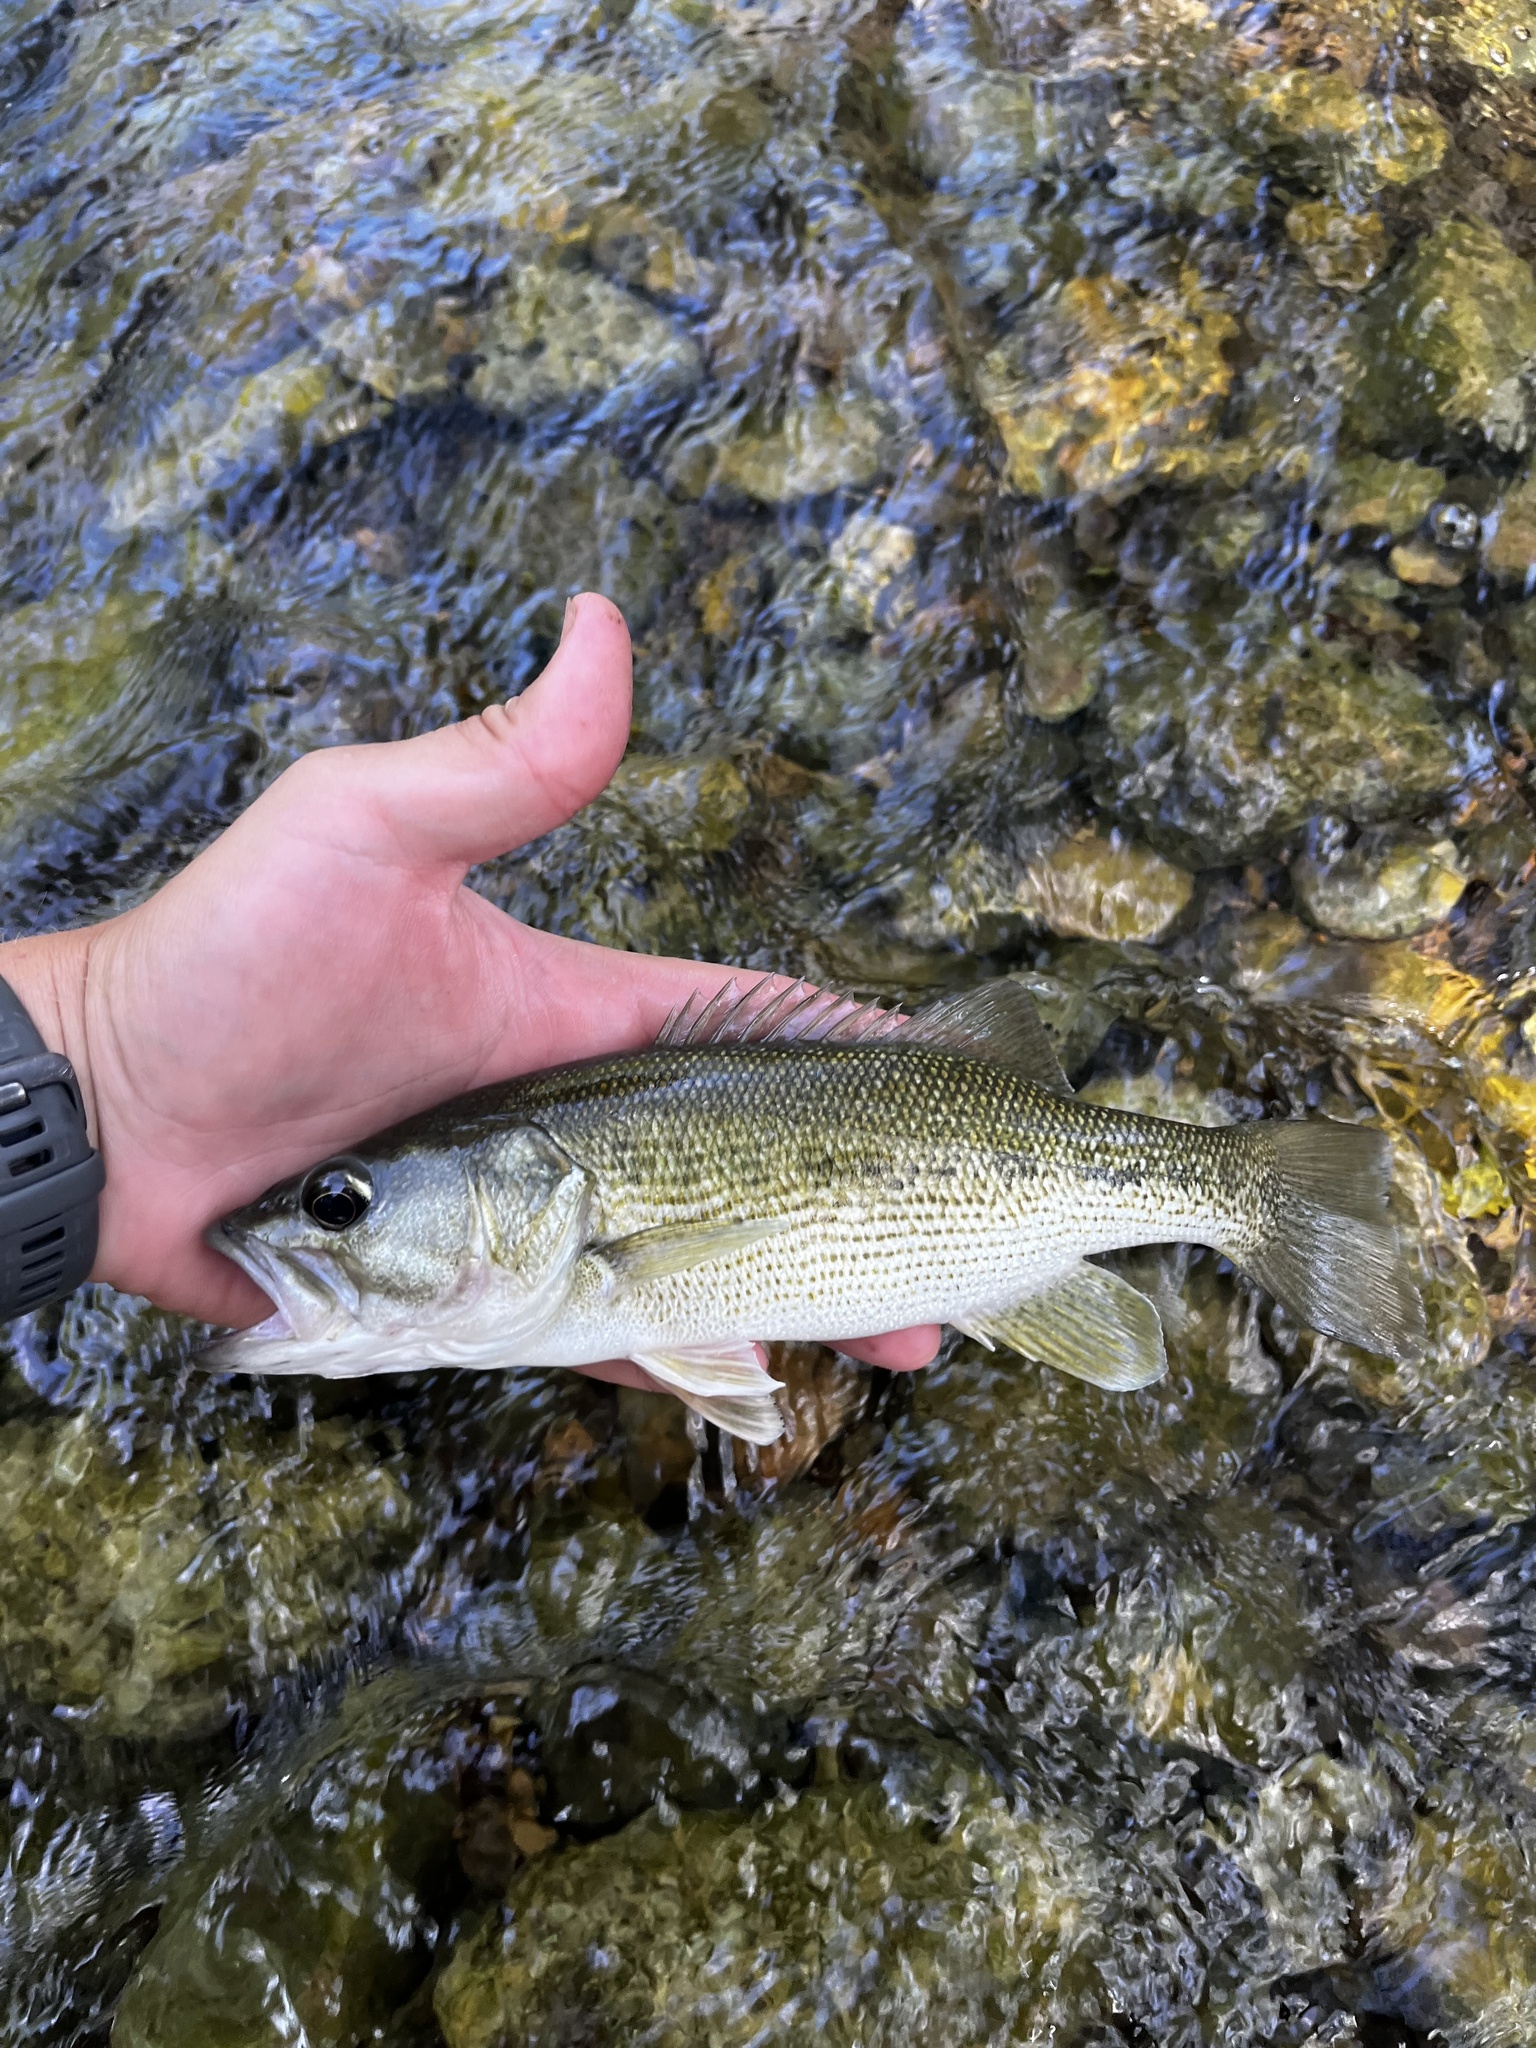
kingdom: Animalia
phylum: Chordata
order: Perciformes
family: Centrarchidae
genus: Micropterus
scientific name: Micropterus treculii
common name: Guadalupe bass
